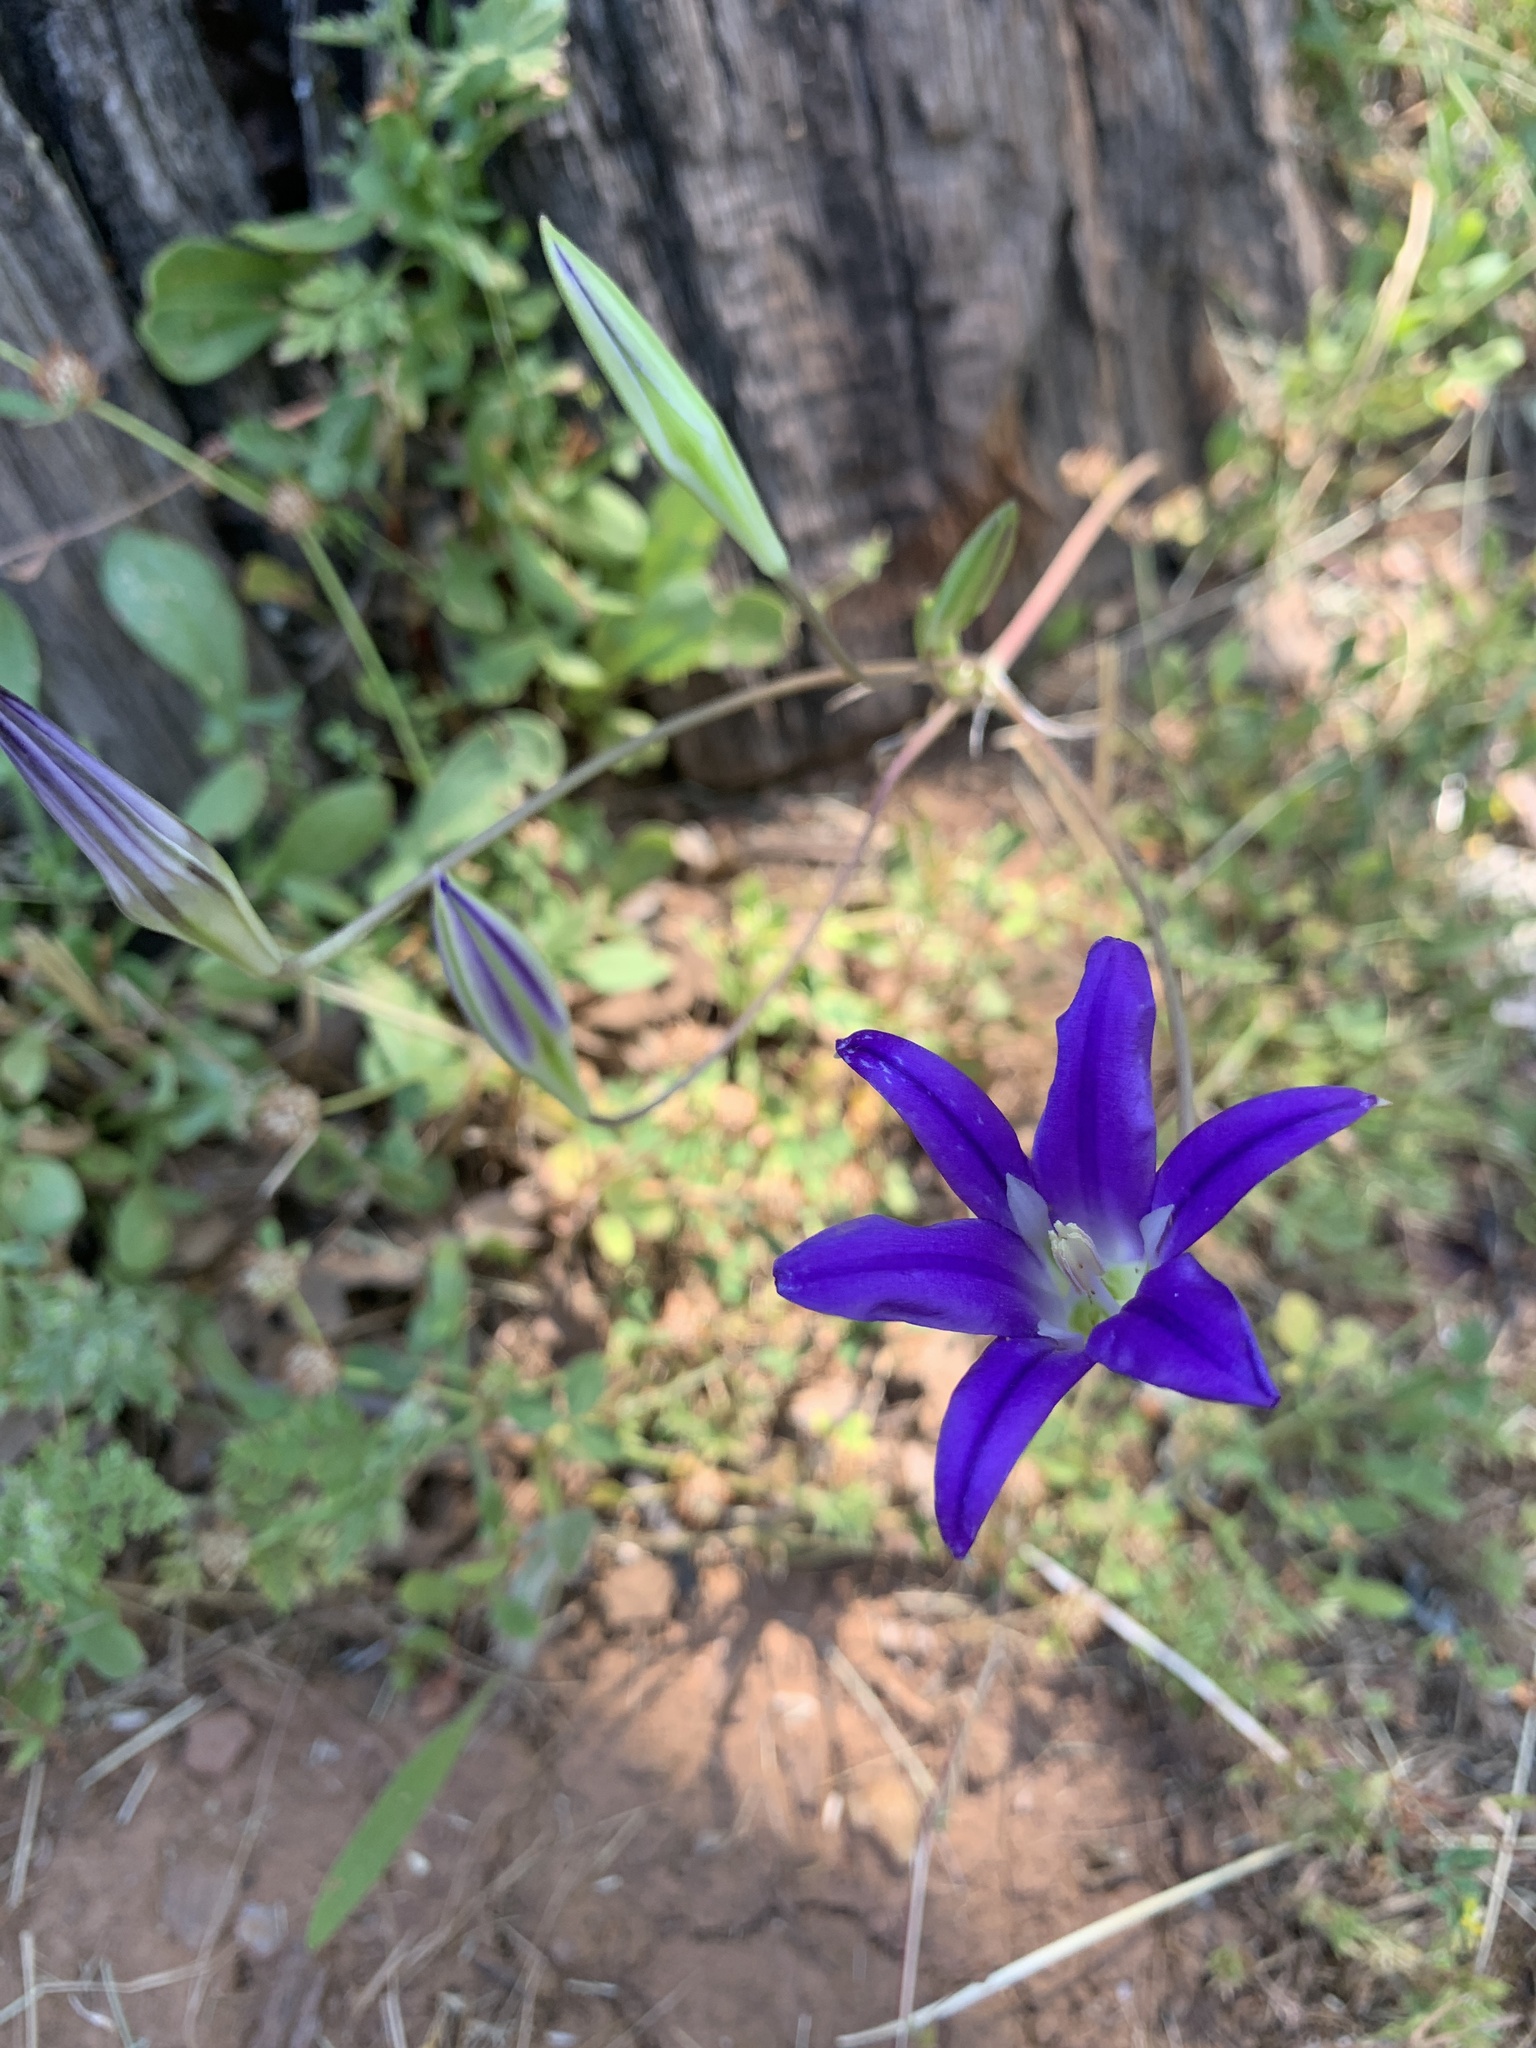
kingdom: Plantae
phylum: Tracheophyta
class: Liliopsida
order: Asparagales
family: Asparagaceae
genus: Brodiaea
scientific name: Brodiaea elegans
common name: Elegant cluster-lily
